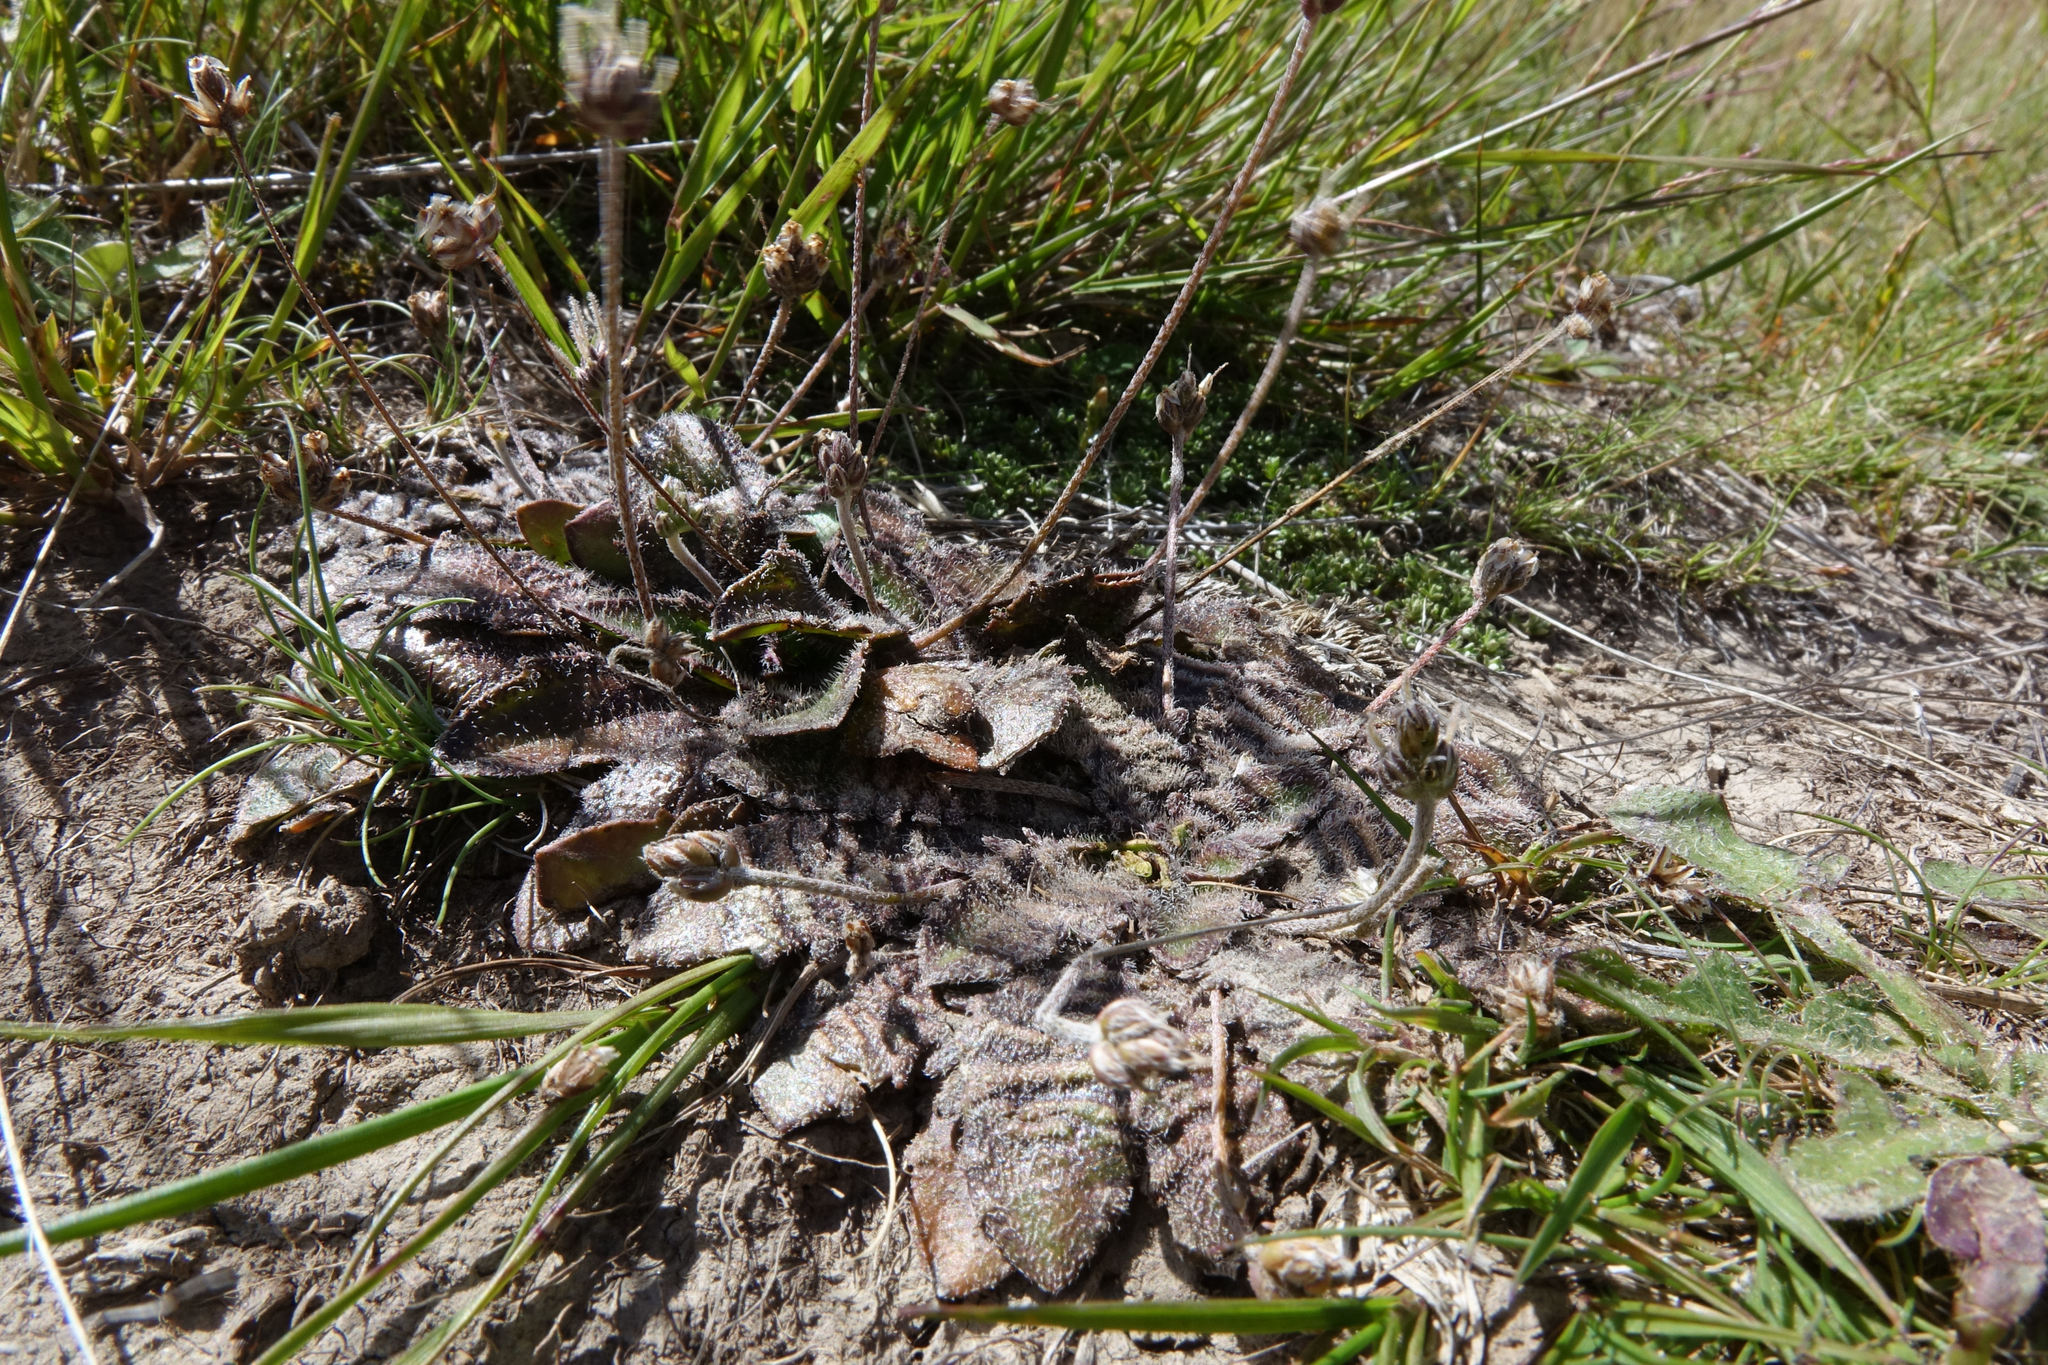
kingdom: Plantae
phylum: Tracheophyta
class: Magnoliopsida
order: Lamiales
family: Plantaginaceae
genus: Plantago
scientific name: Plantago spathulata
